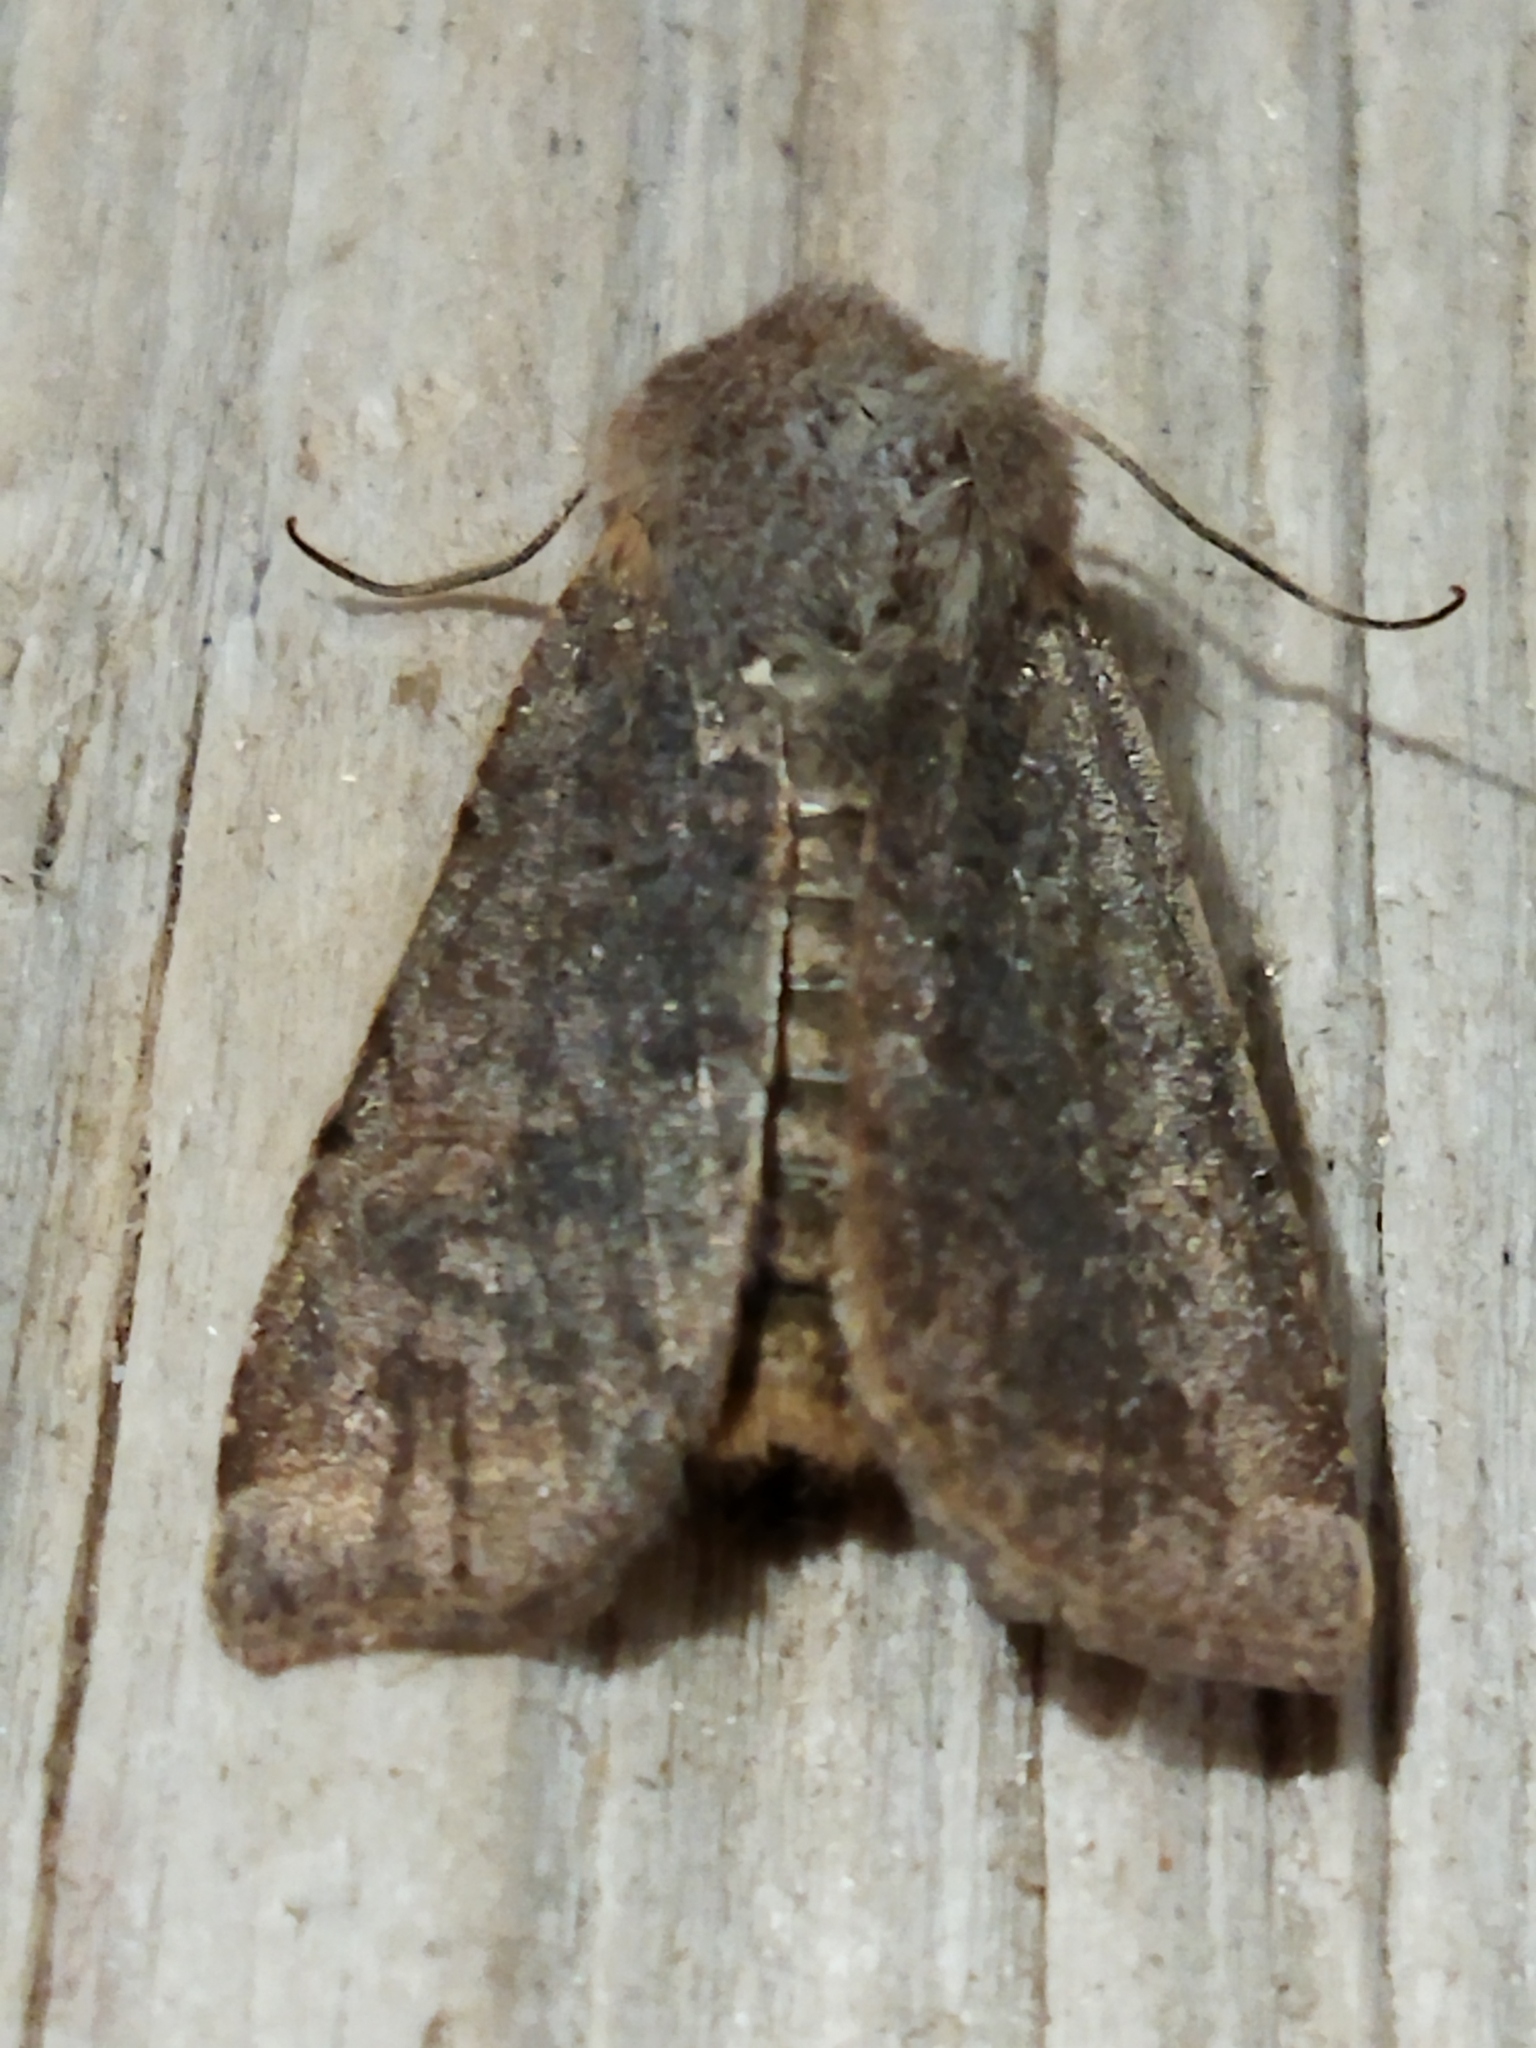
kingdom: Animalia
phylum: Arthropoda
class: Insecta
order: Lepidoptera
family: Noctuidae
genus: Agrochola
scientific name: Agrochola lychnidis
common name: Beaded chestnut
